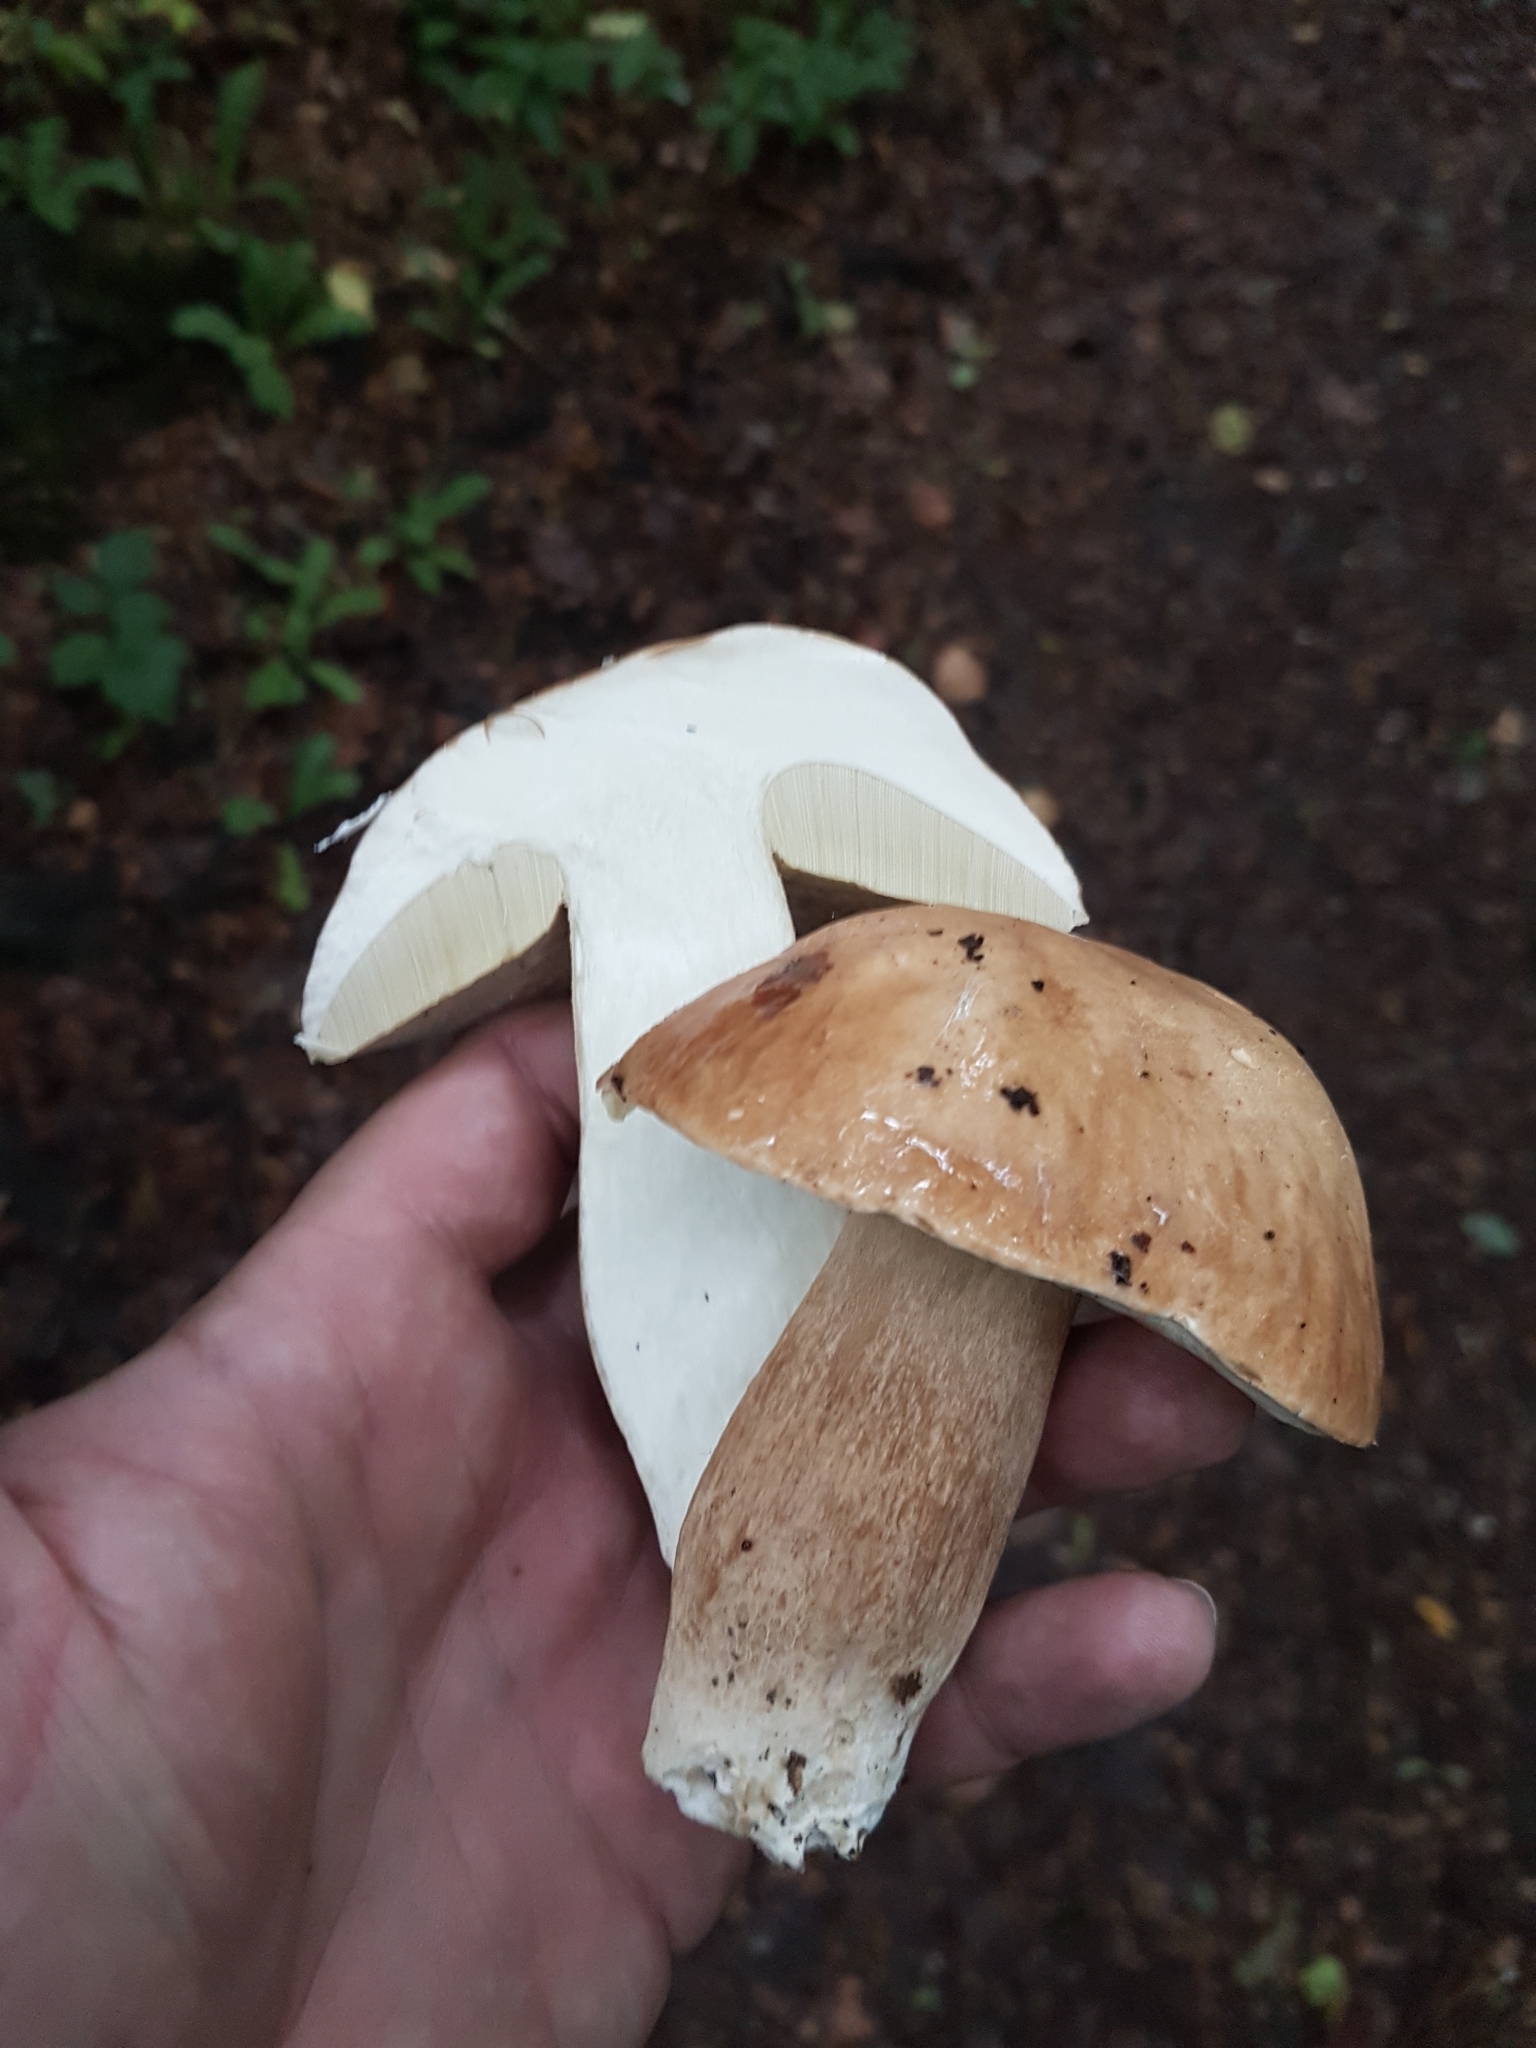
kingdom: Fungi
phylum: Basidiomycota
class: Agaricomycetes
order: Boletales
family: Boletaceae
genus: Boletus
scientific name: Boletus reticulatus
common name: Summer bolete
